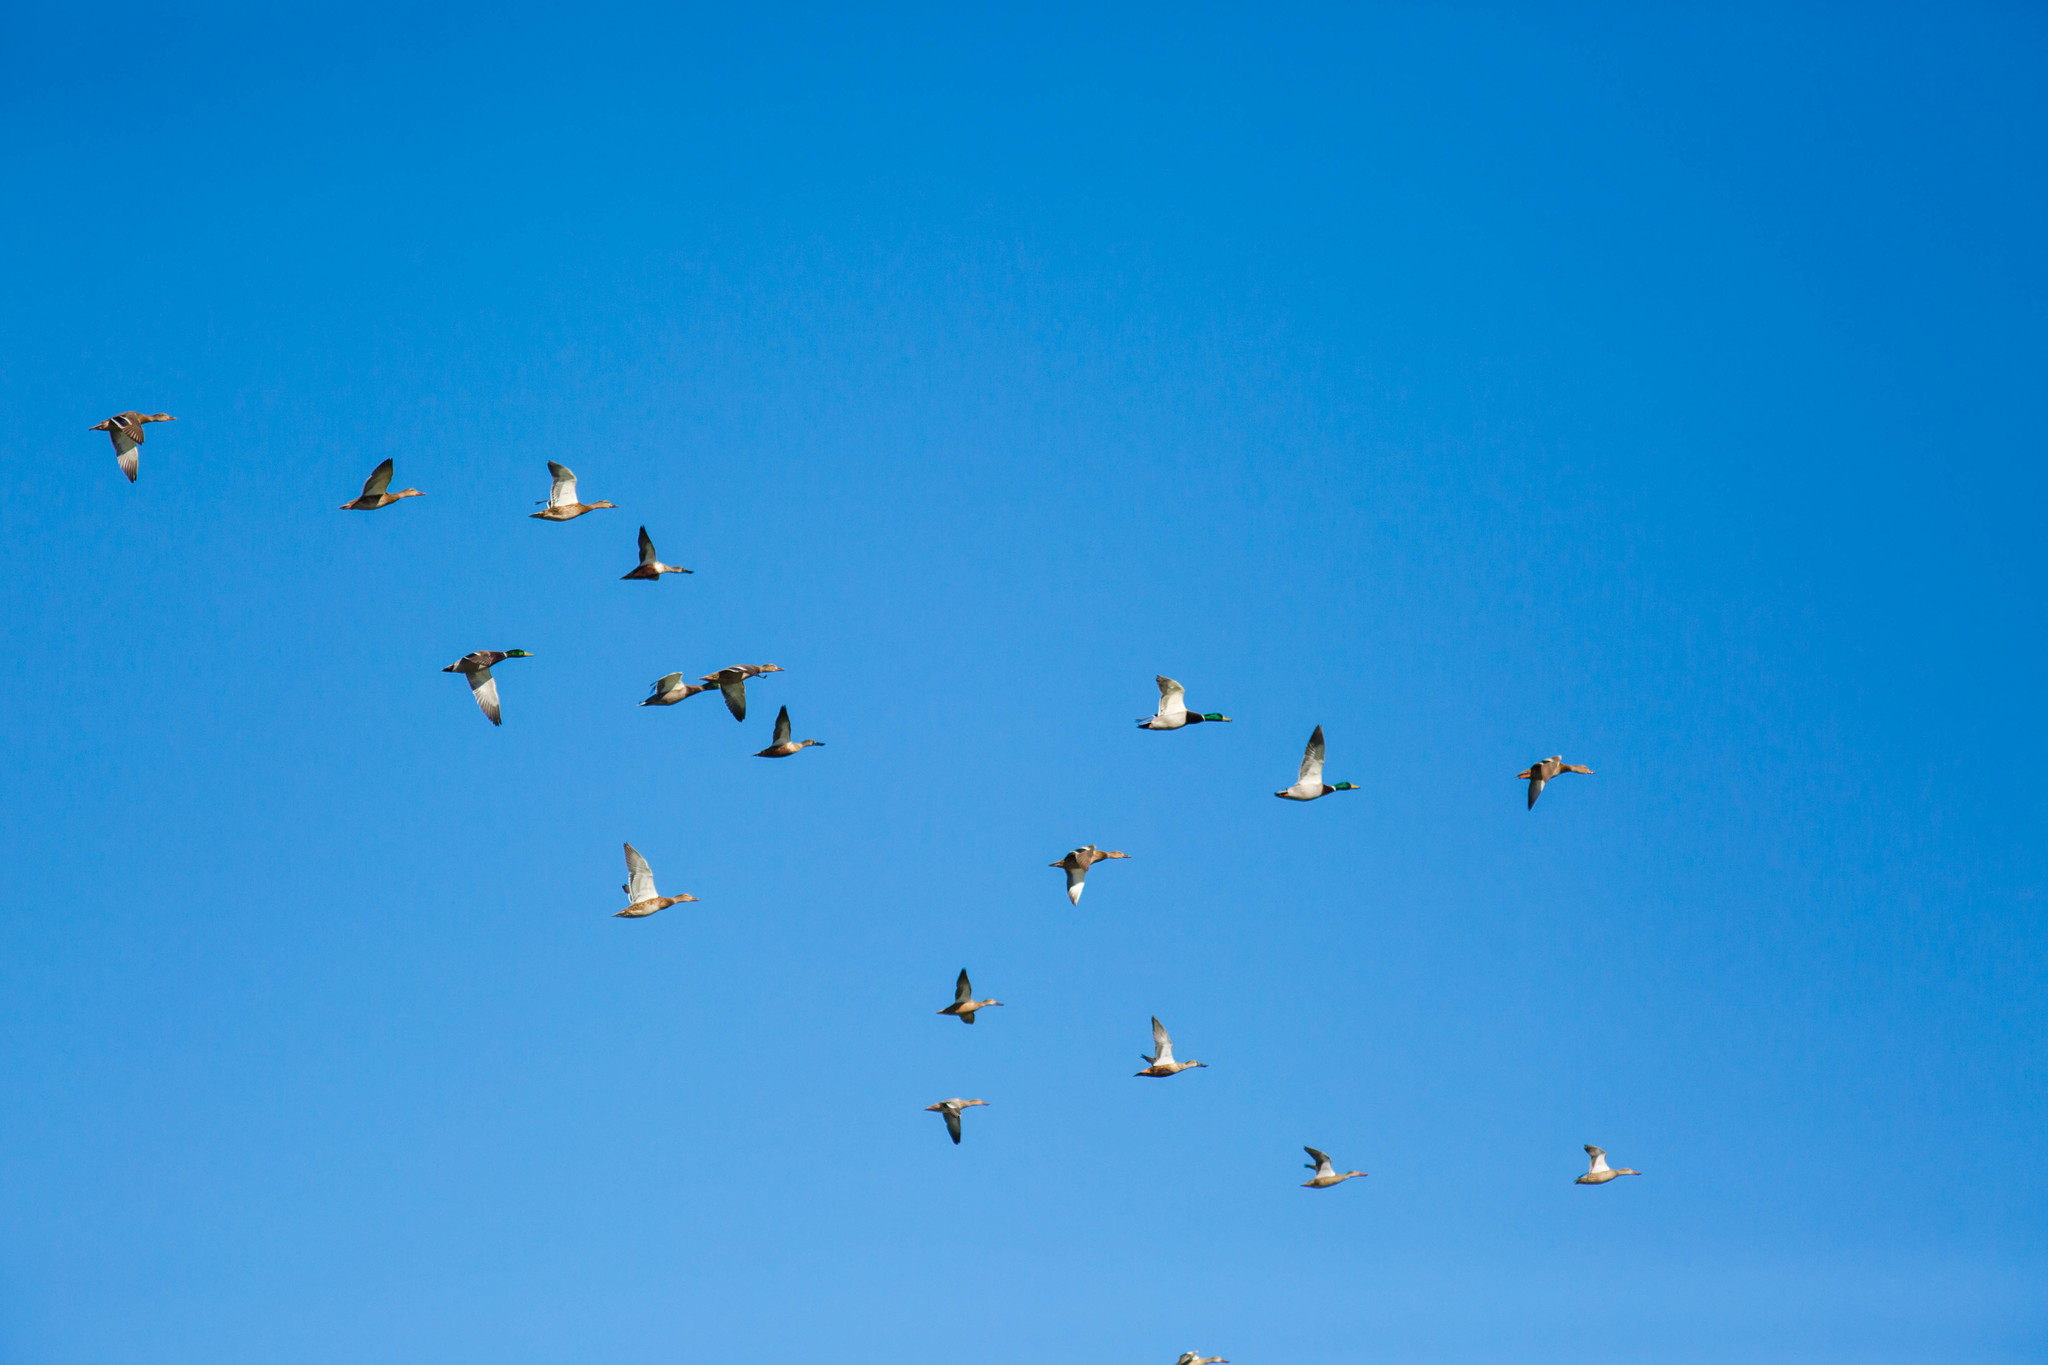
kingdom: Animalia
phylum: Chordata
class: Aves
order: Anseriformes
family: Anatidae
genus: Anas
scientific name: Anas platyrhynchos
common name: Mallard
